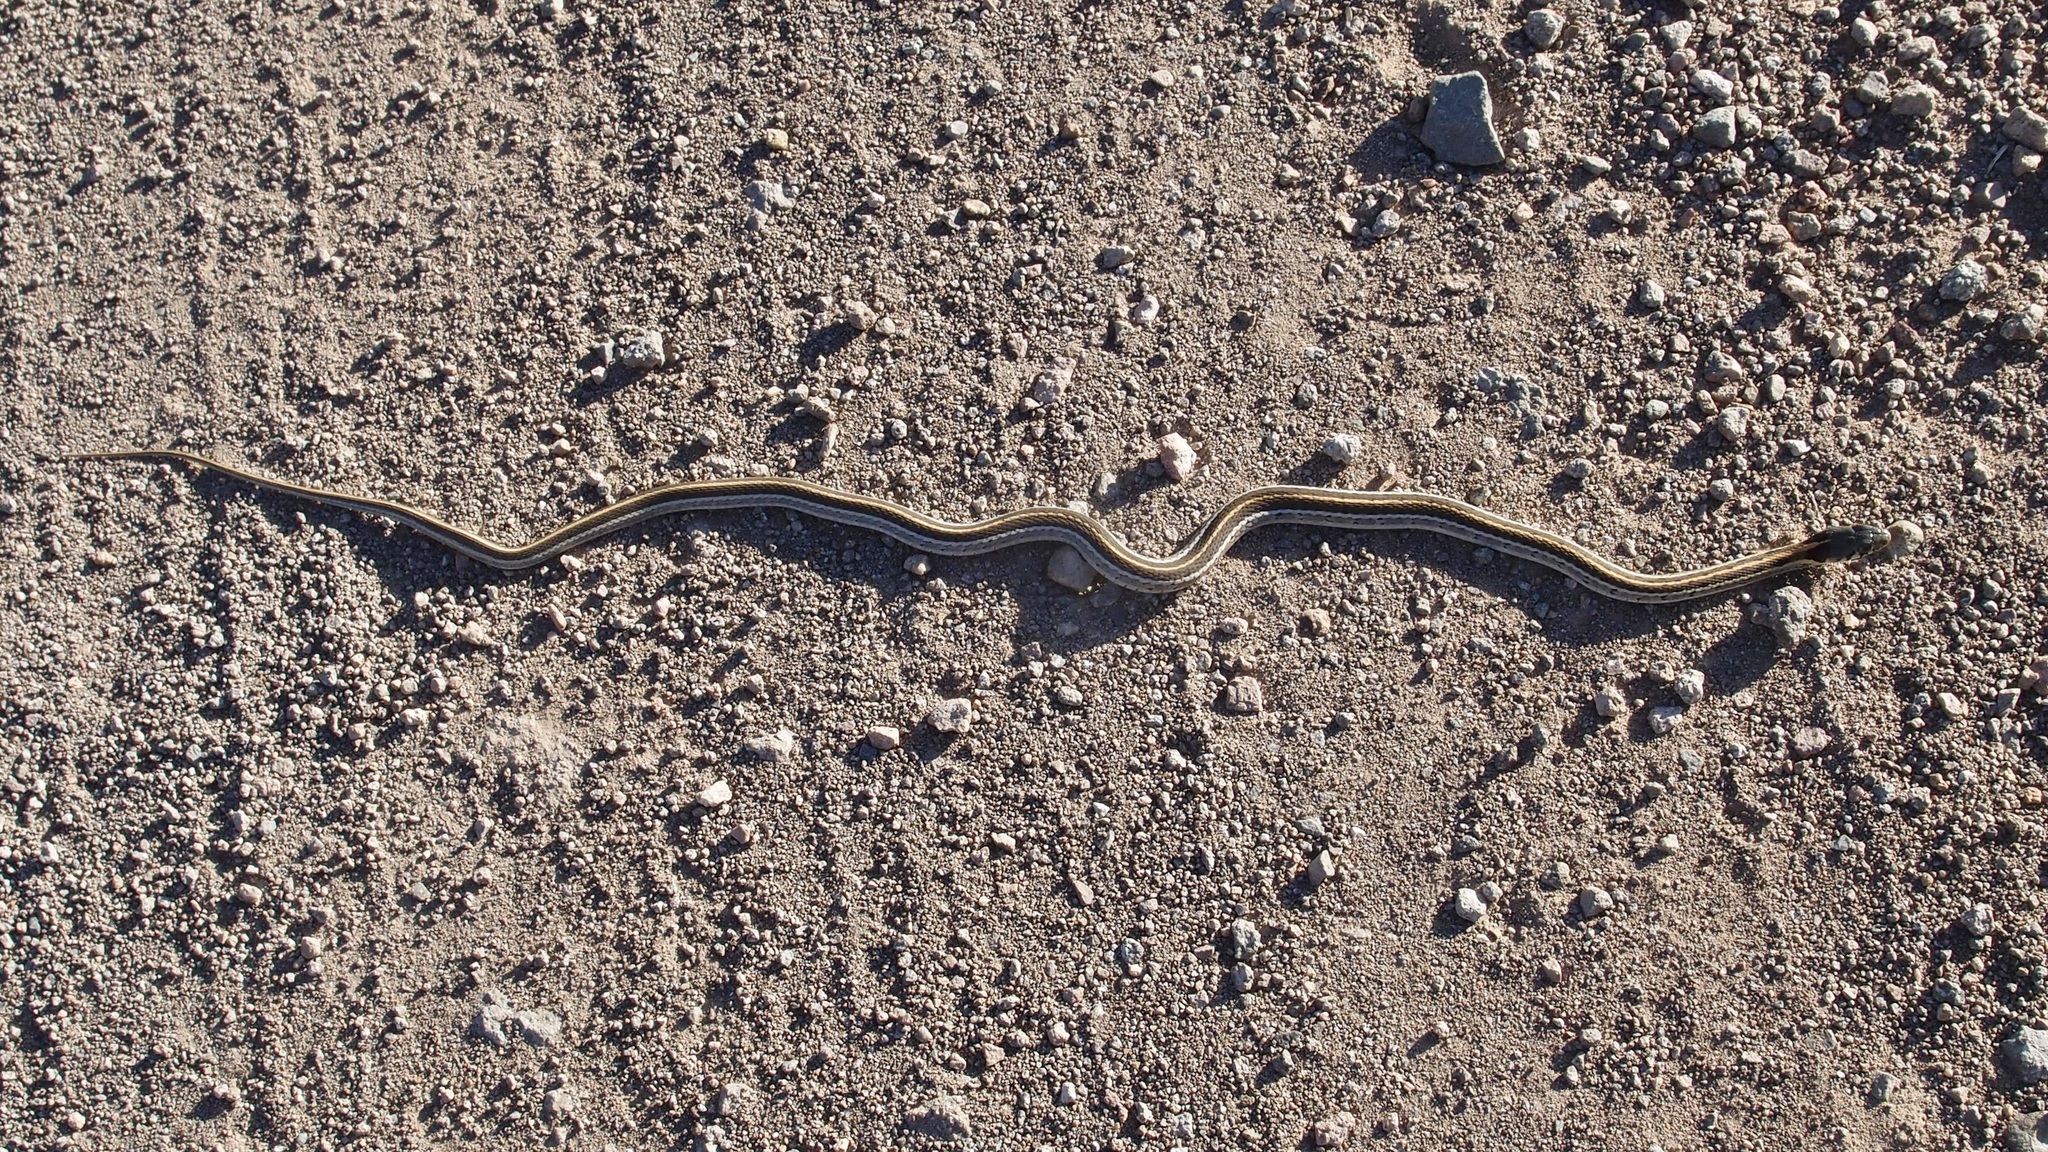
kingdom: Animalia
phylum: Chordata
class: Squamata
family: Colubridae
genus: Thamnophis
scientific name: Thamnophis cyrtopsis
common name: Black-necked gartersnake
